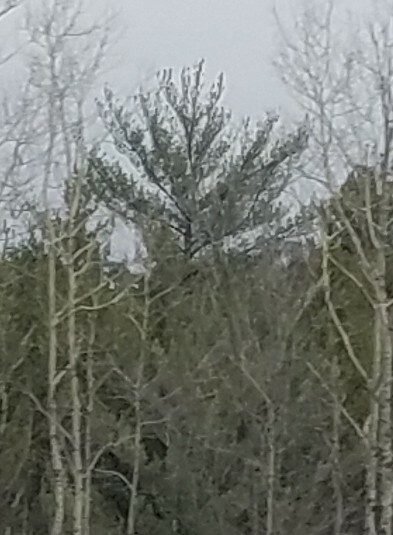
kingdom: Plantae
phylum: Tracheophyta
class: Pinopsida
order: Pinales
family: Pinaceae
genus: Pinus
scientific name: Pinus strobus
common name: Weymouth pine
